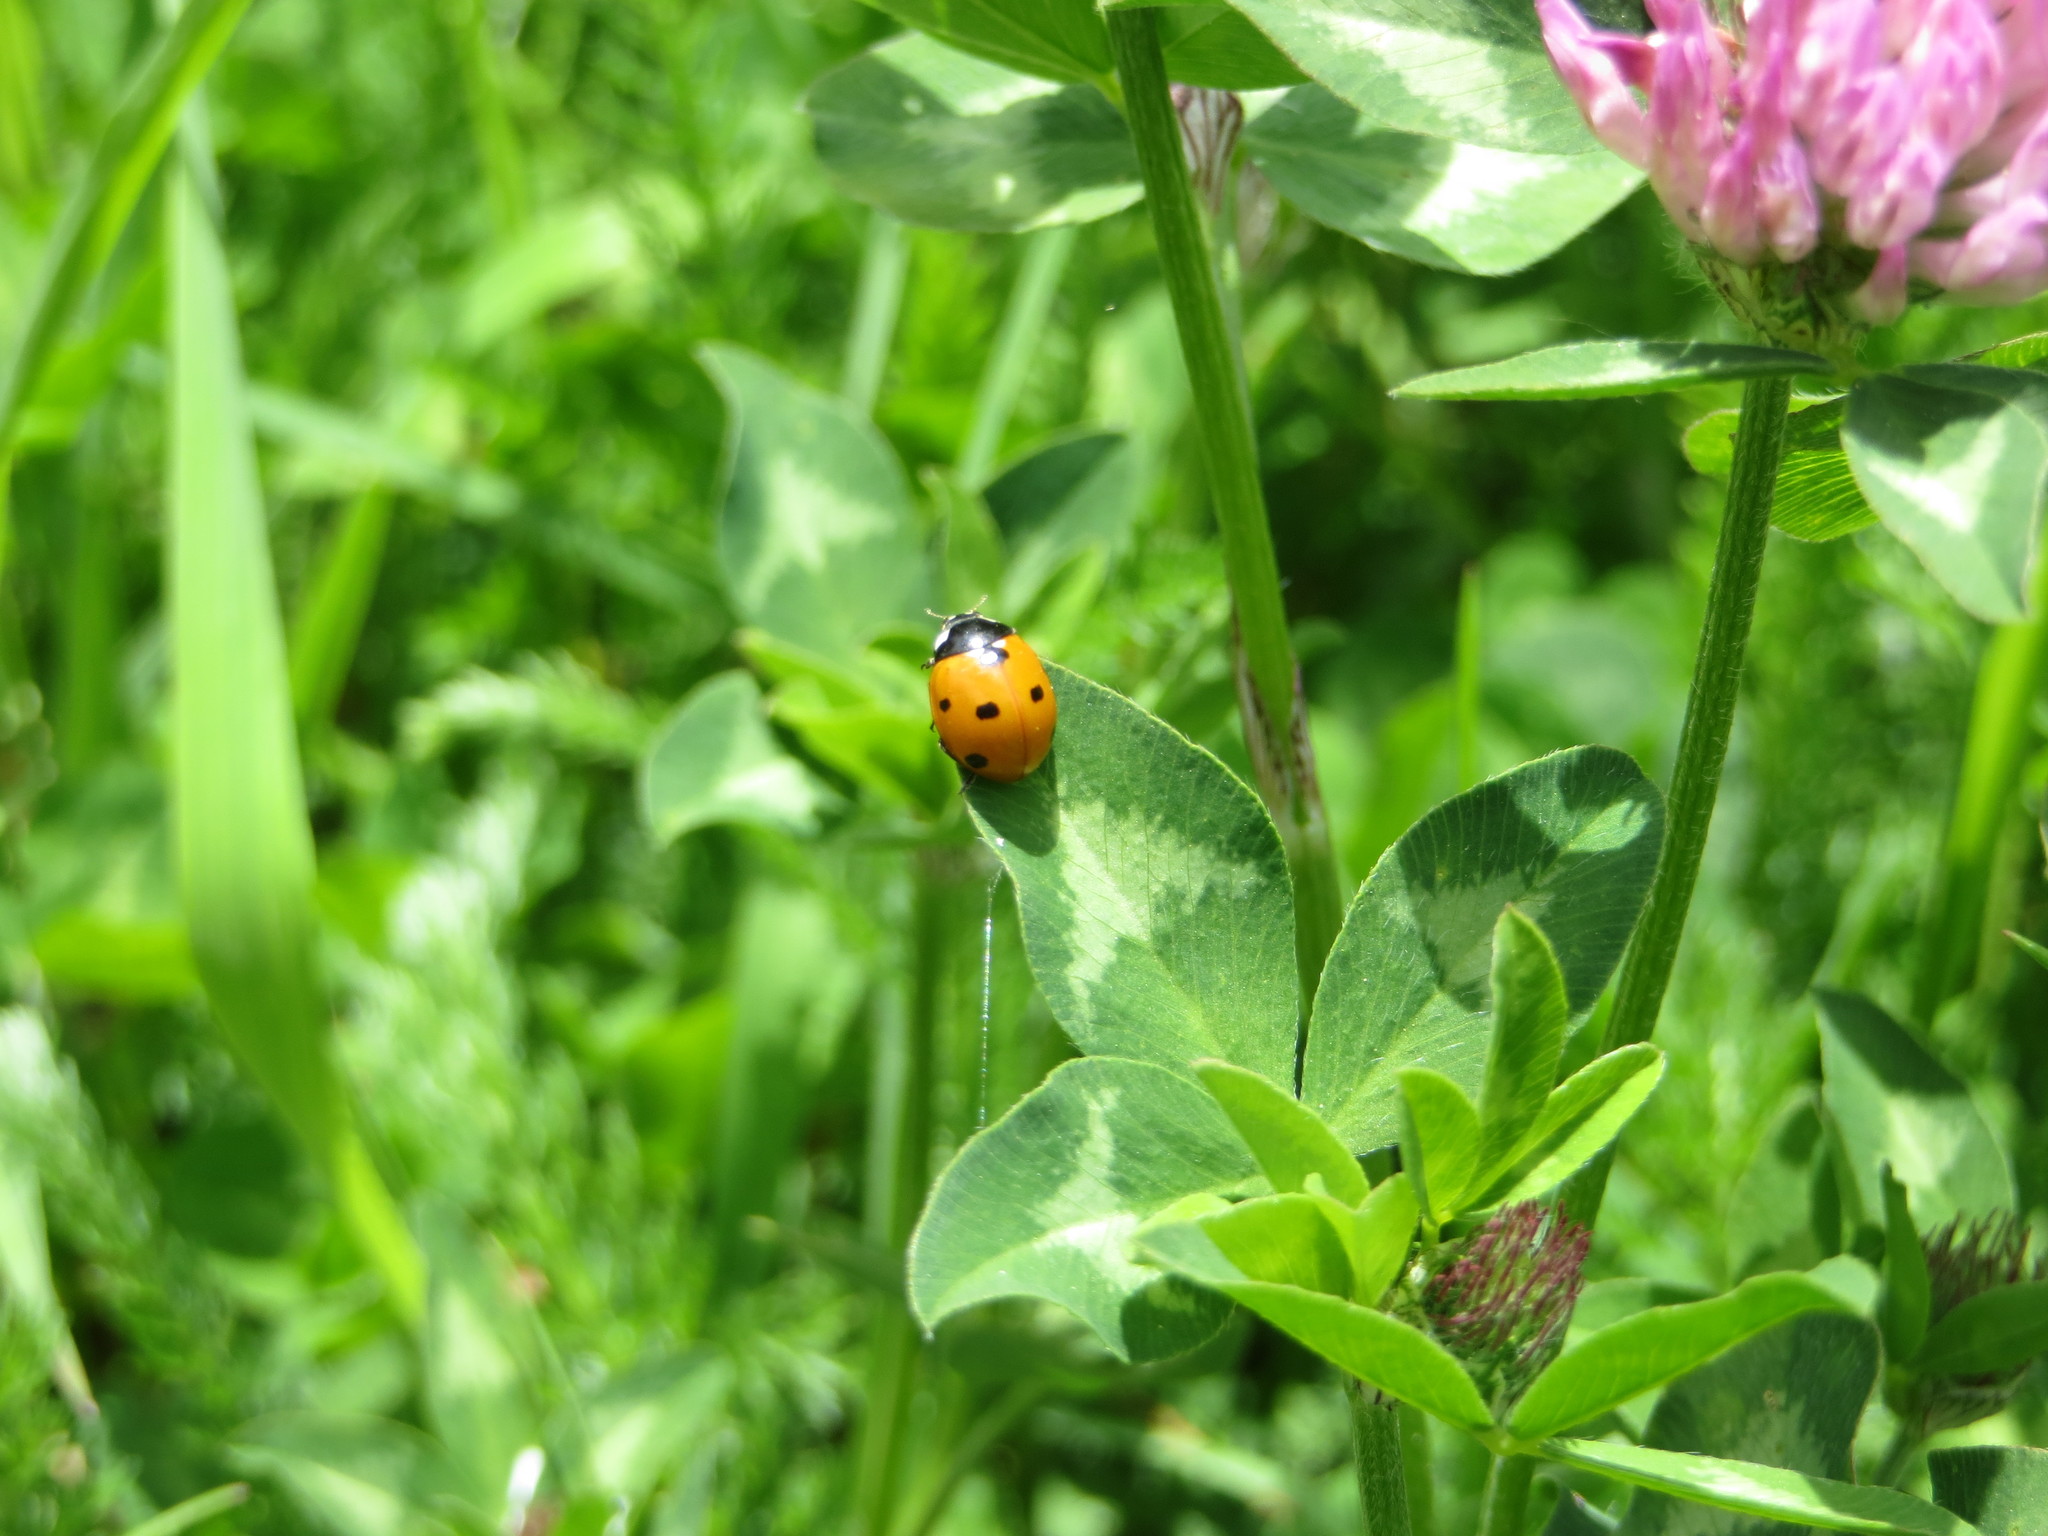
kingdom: Animalia
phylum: Arthropoda
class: Insecta
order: Coleoptera
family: Coccinellidae
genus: Coccinella
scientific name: Coccinella septempunctata
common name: Sevenspotted lady beetle
